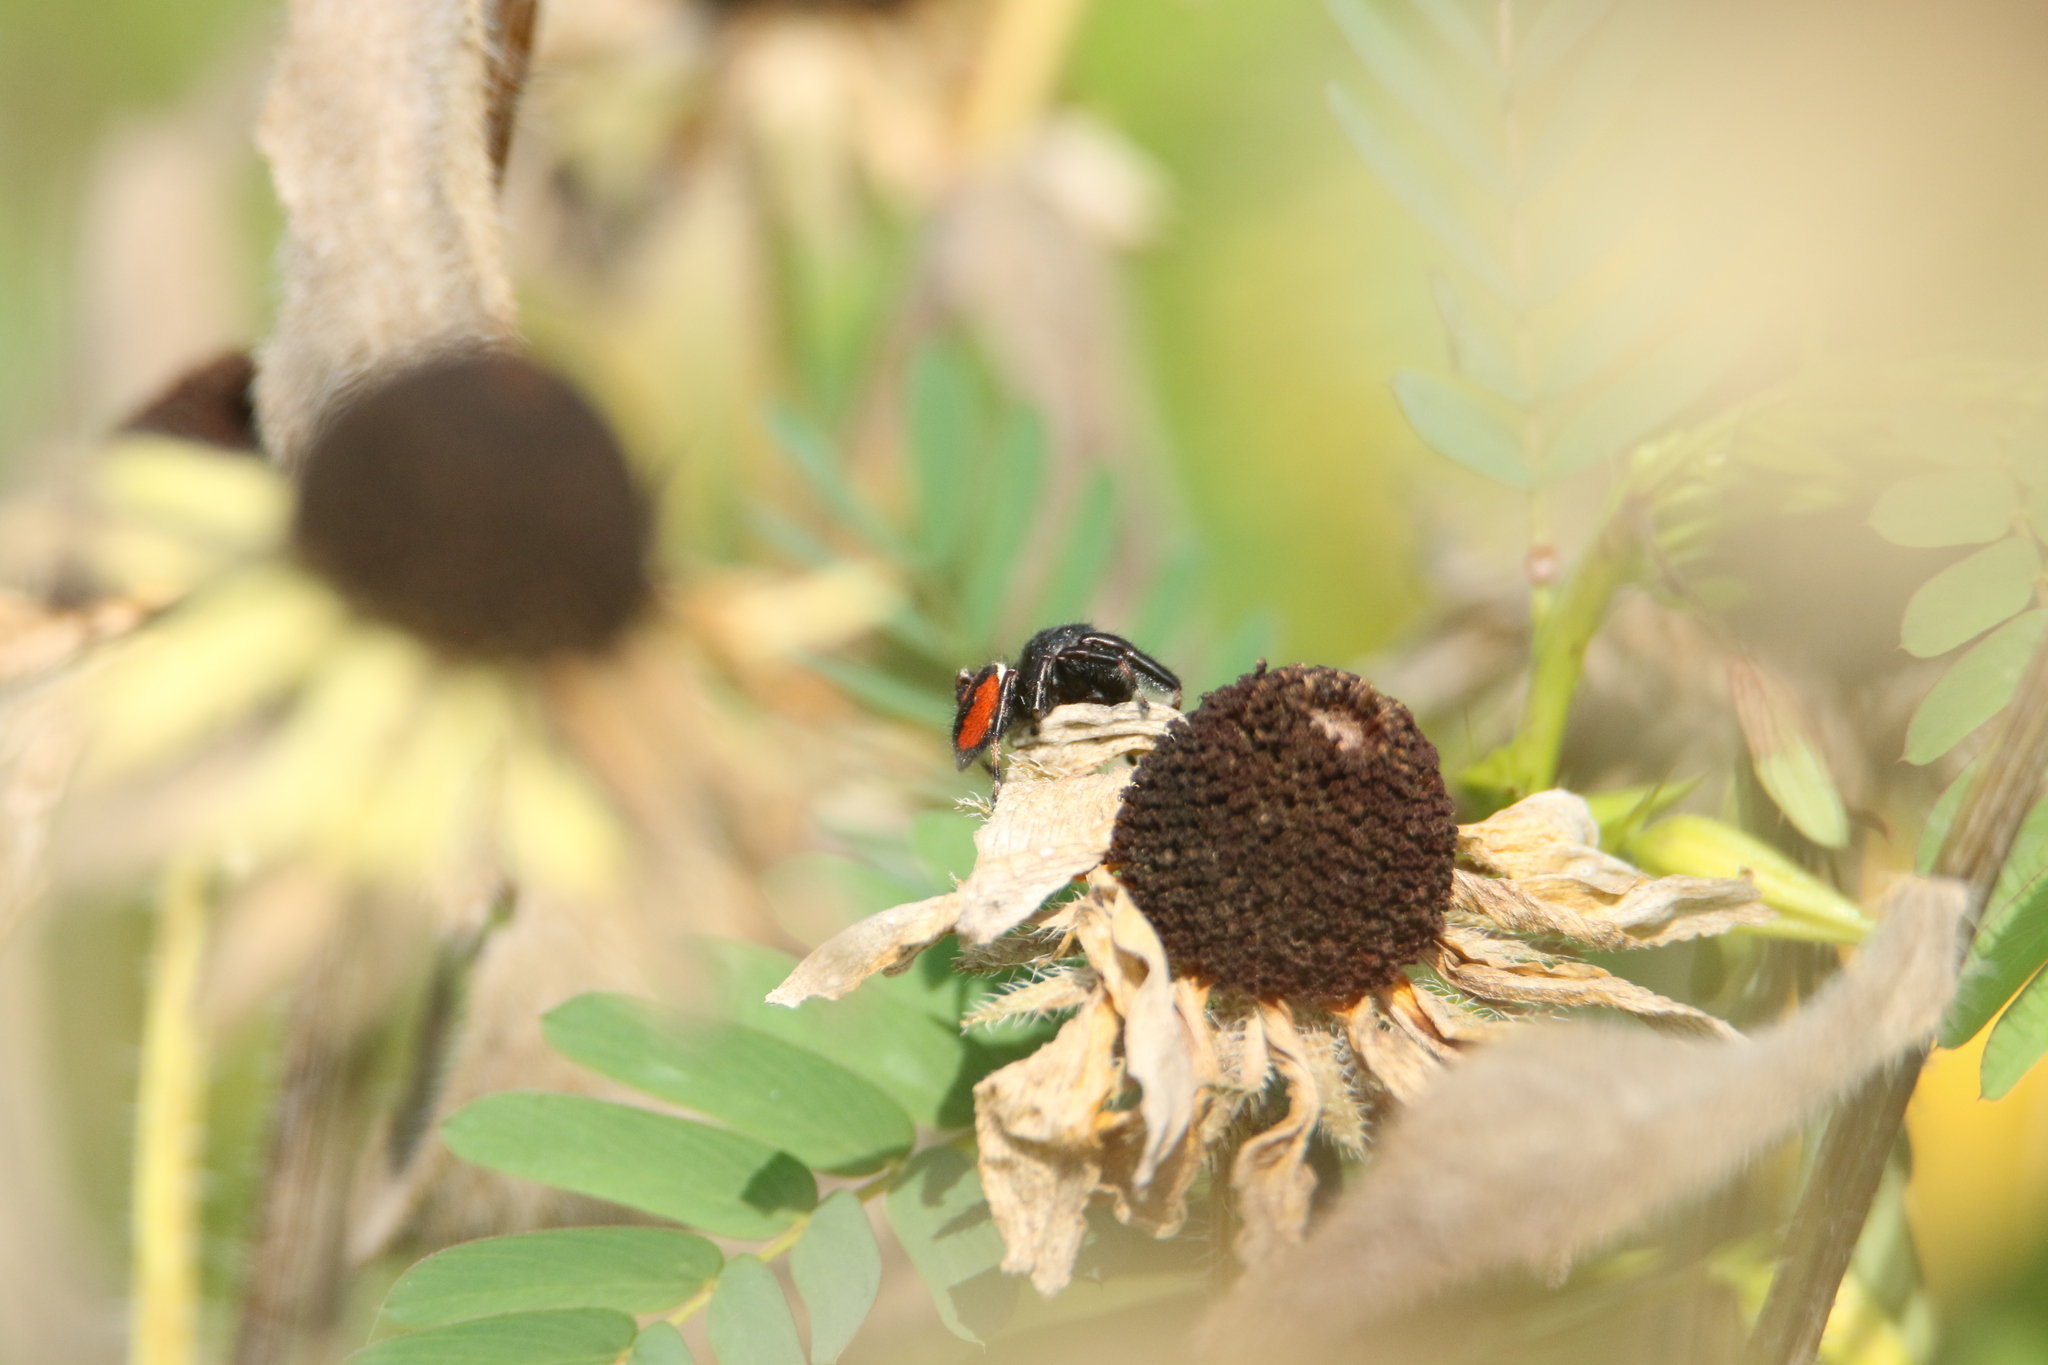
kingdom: Animalia
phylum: Arthropoda
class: Arachnida
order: Araneae
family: Salticidae
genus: Phidippus
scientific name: Phidippus clarus
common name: Brilliant jumping spider
